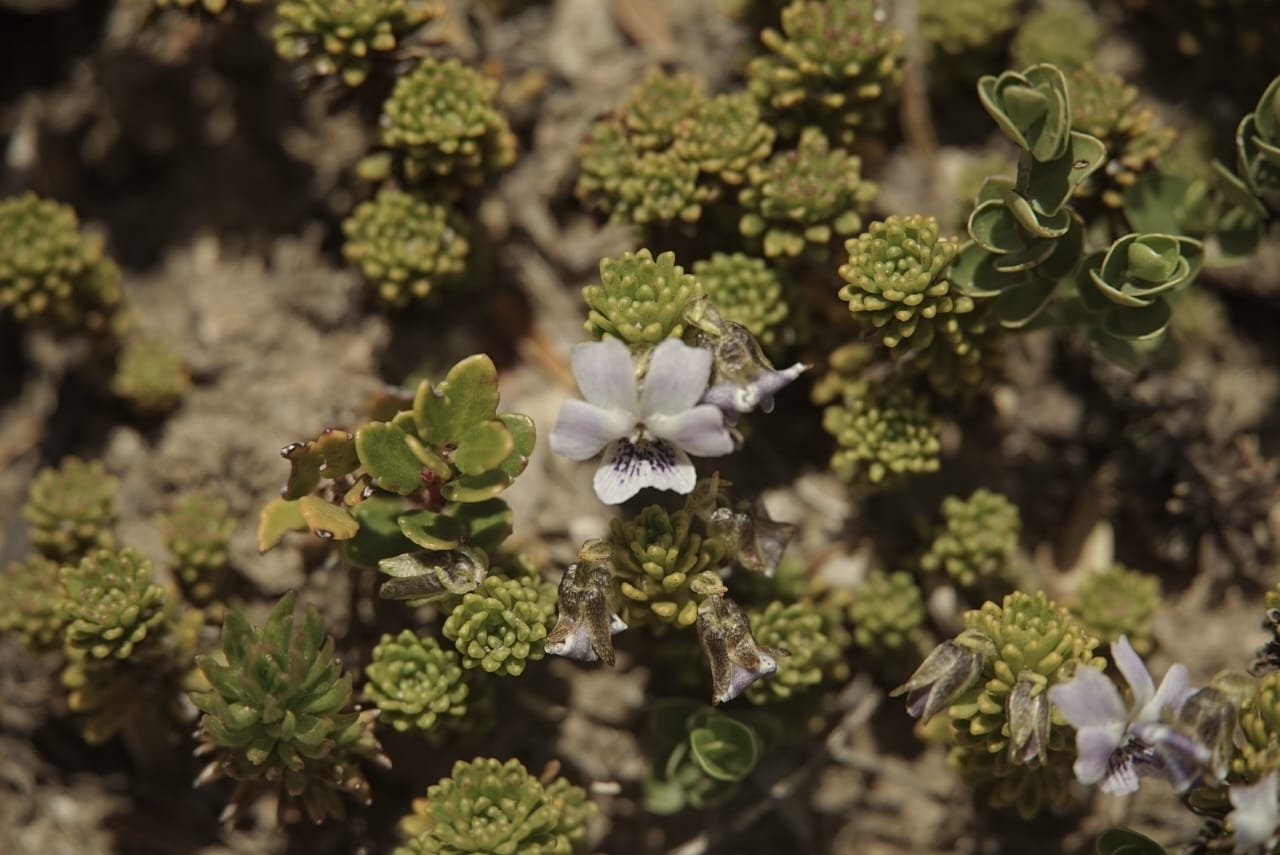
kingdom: Plantae
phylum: Tracheophyta
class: Magnoliopsida
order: Malpighiales
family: Violaceae
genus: Viola
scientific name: Viola fluehmannii
